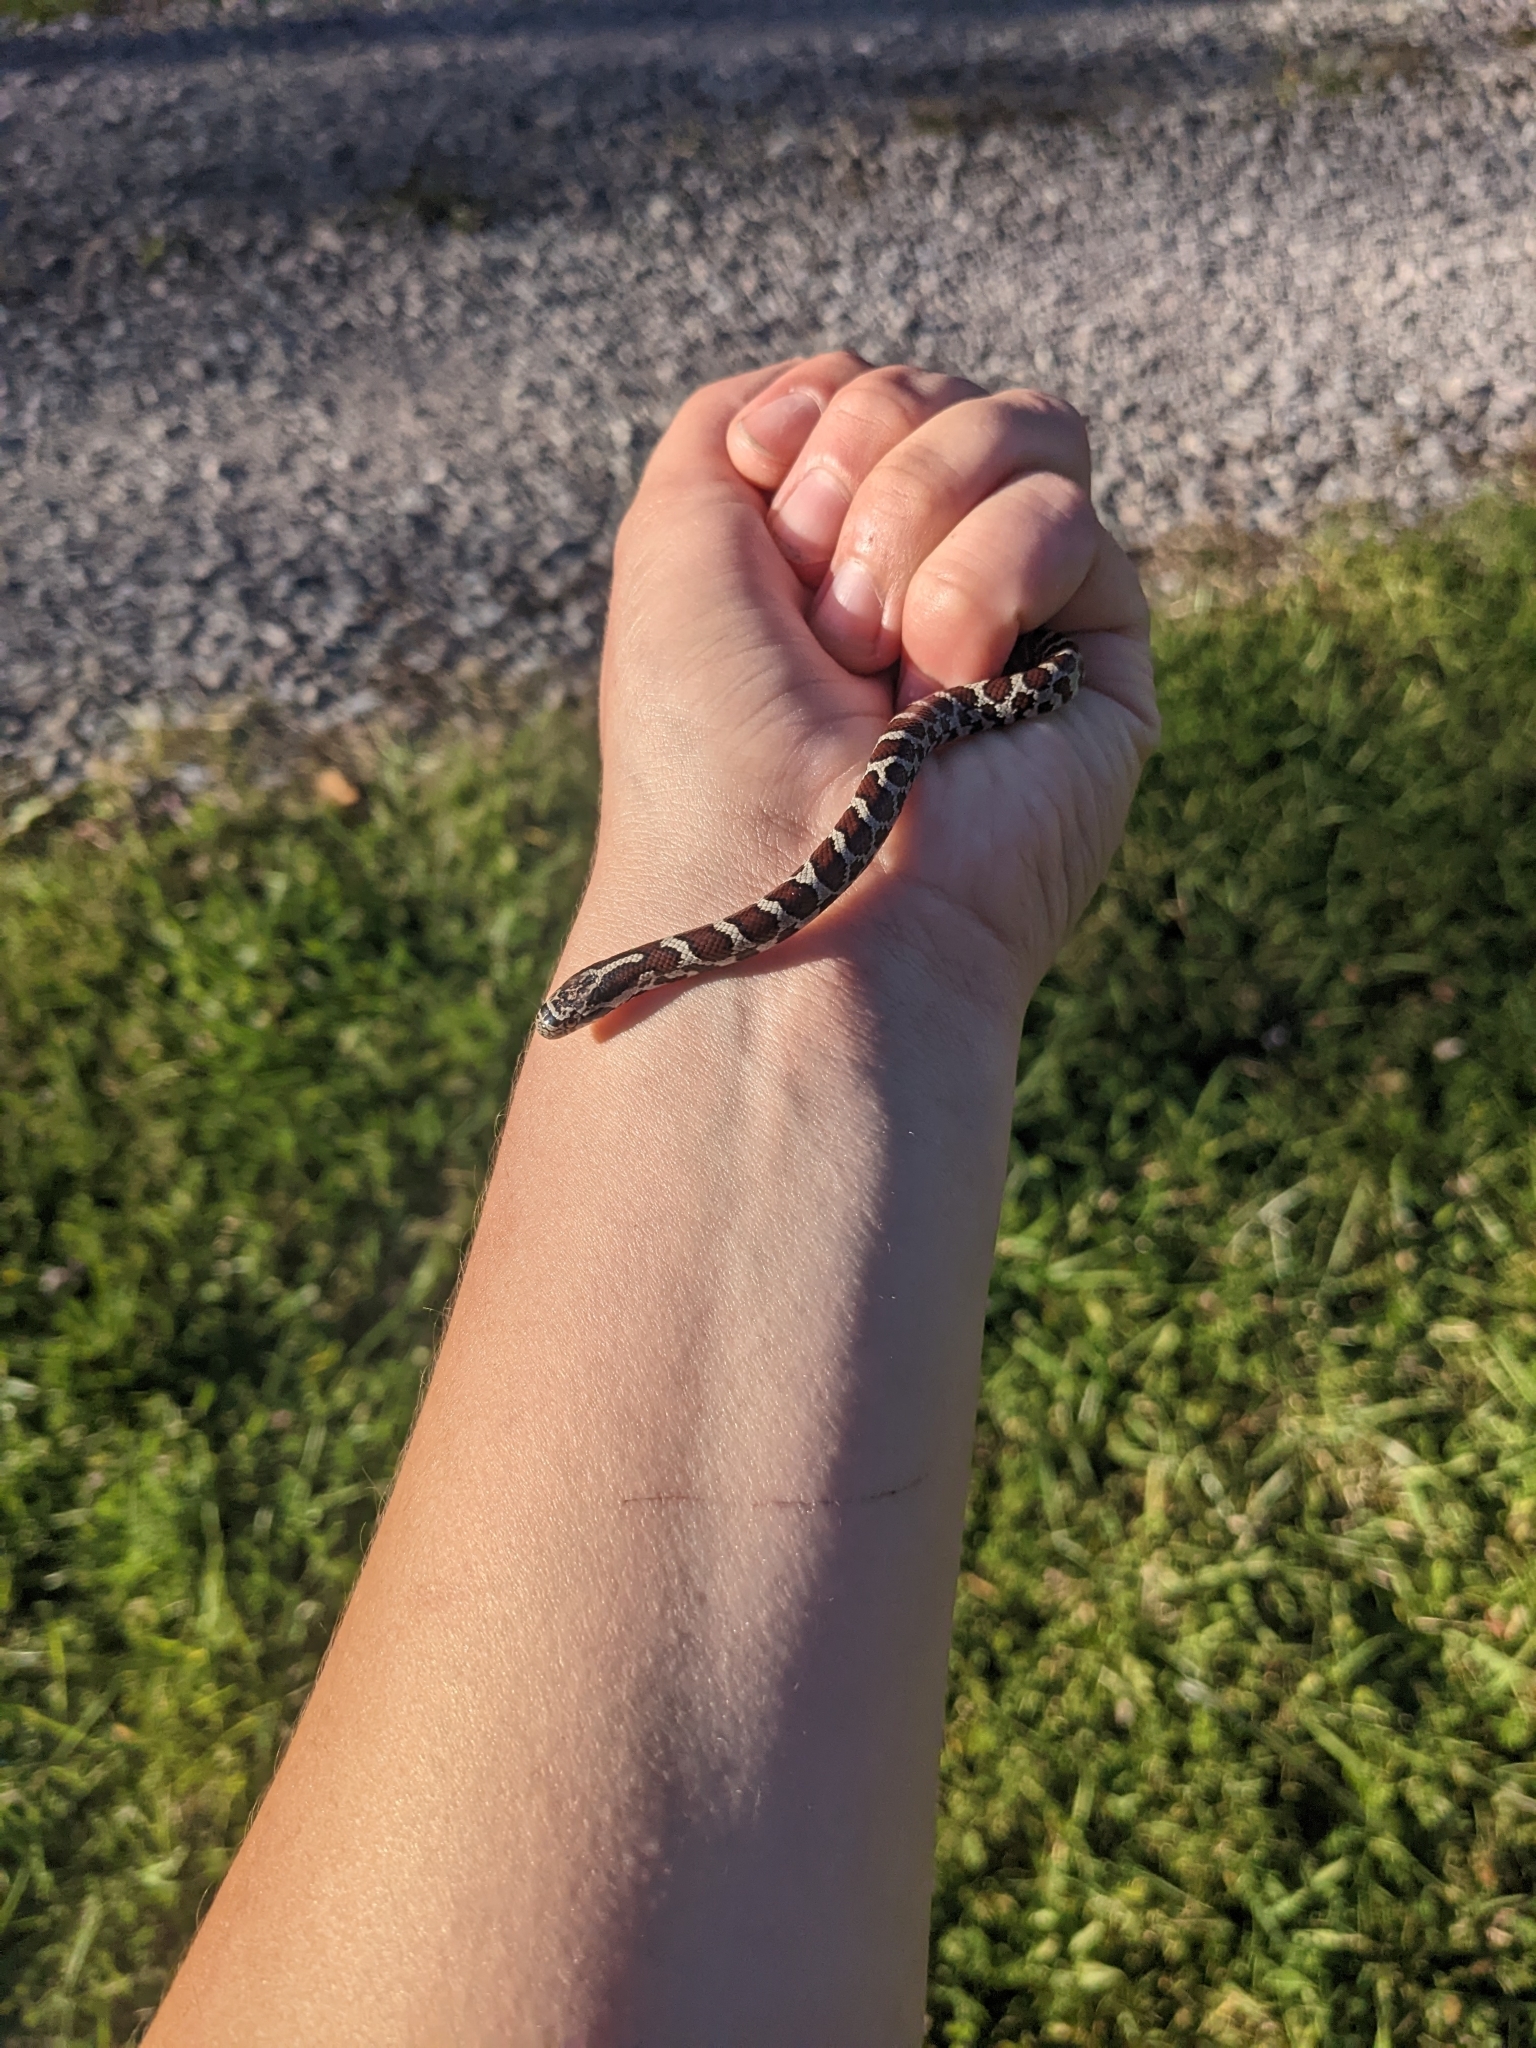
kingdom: Animalia
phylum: Chordata
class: Squamata
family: Colubridae
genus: Lampropeltis
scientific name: Lampropeltis triangulum
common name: Eastern milksnake
